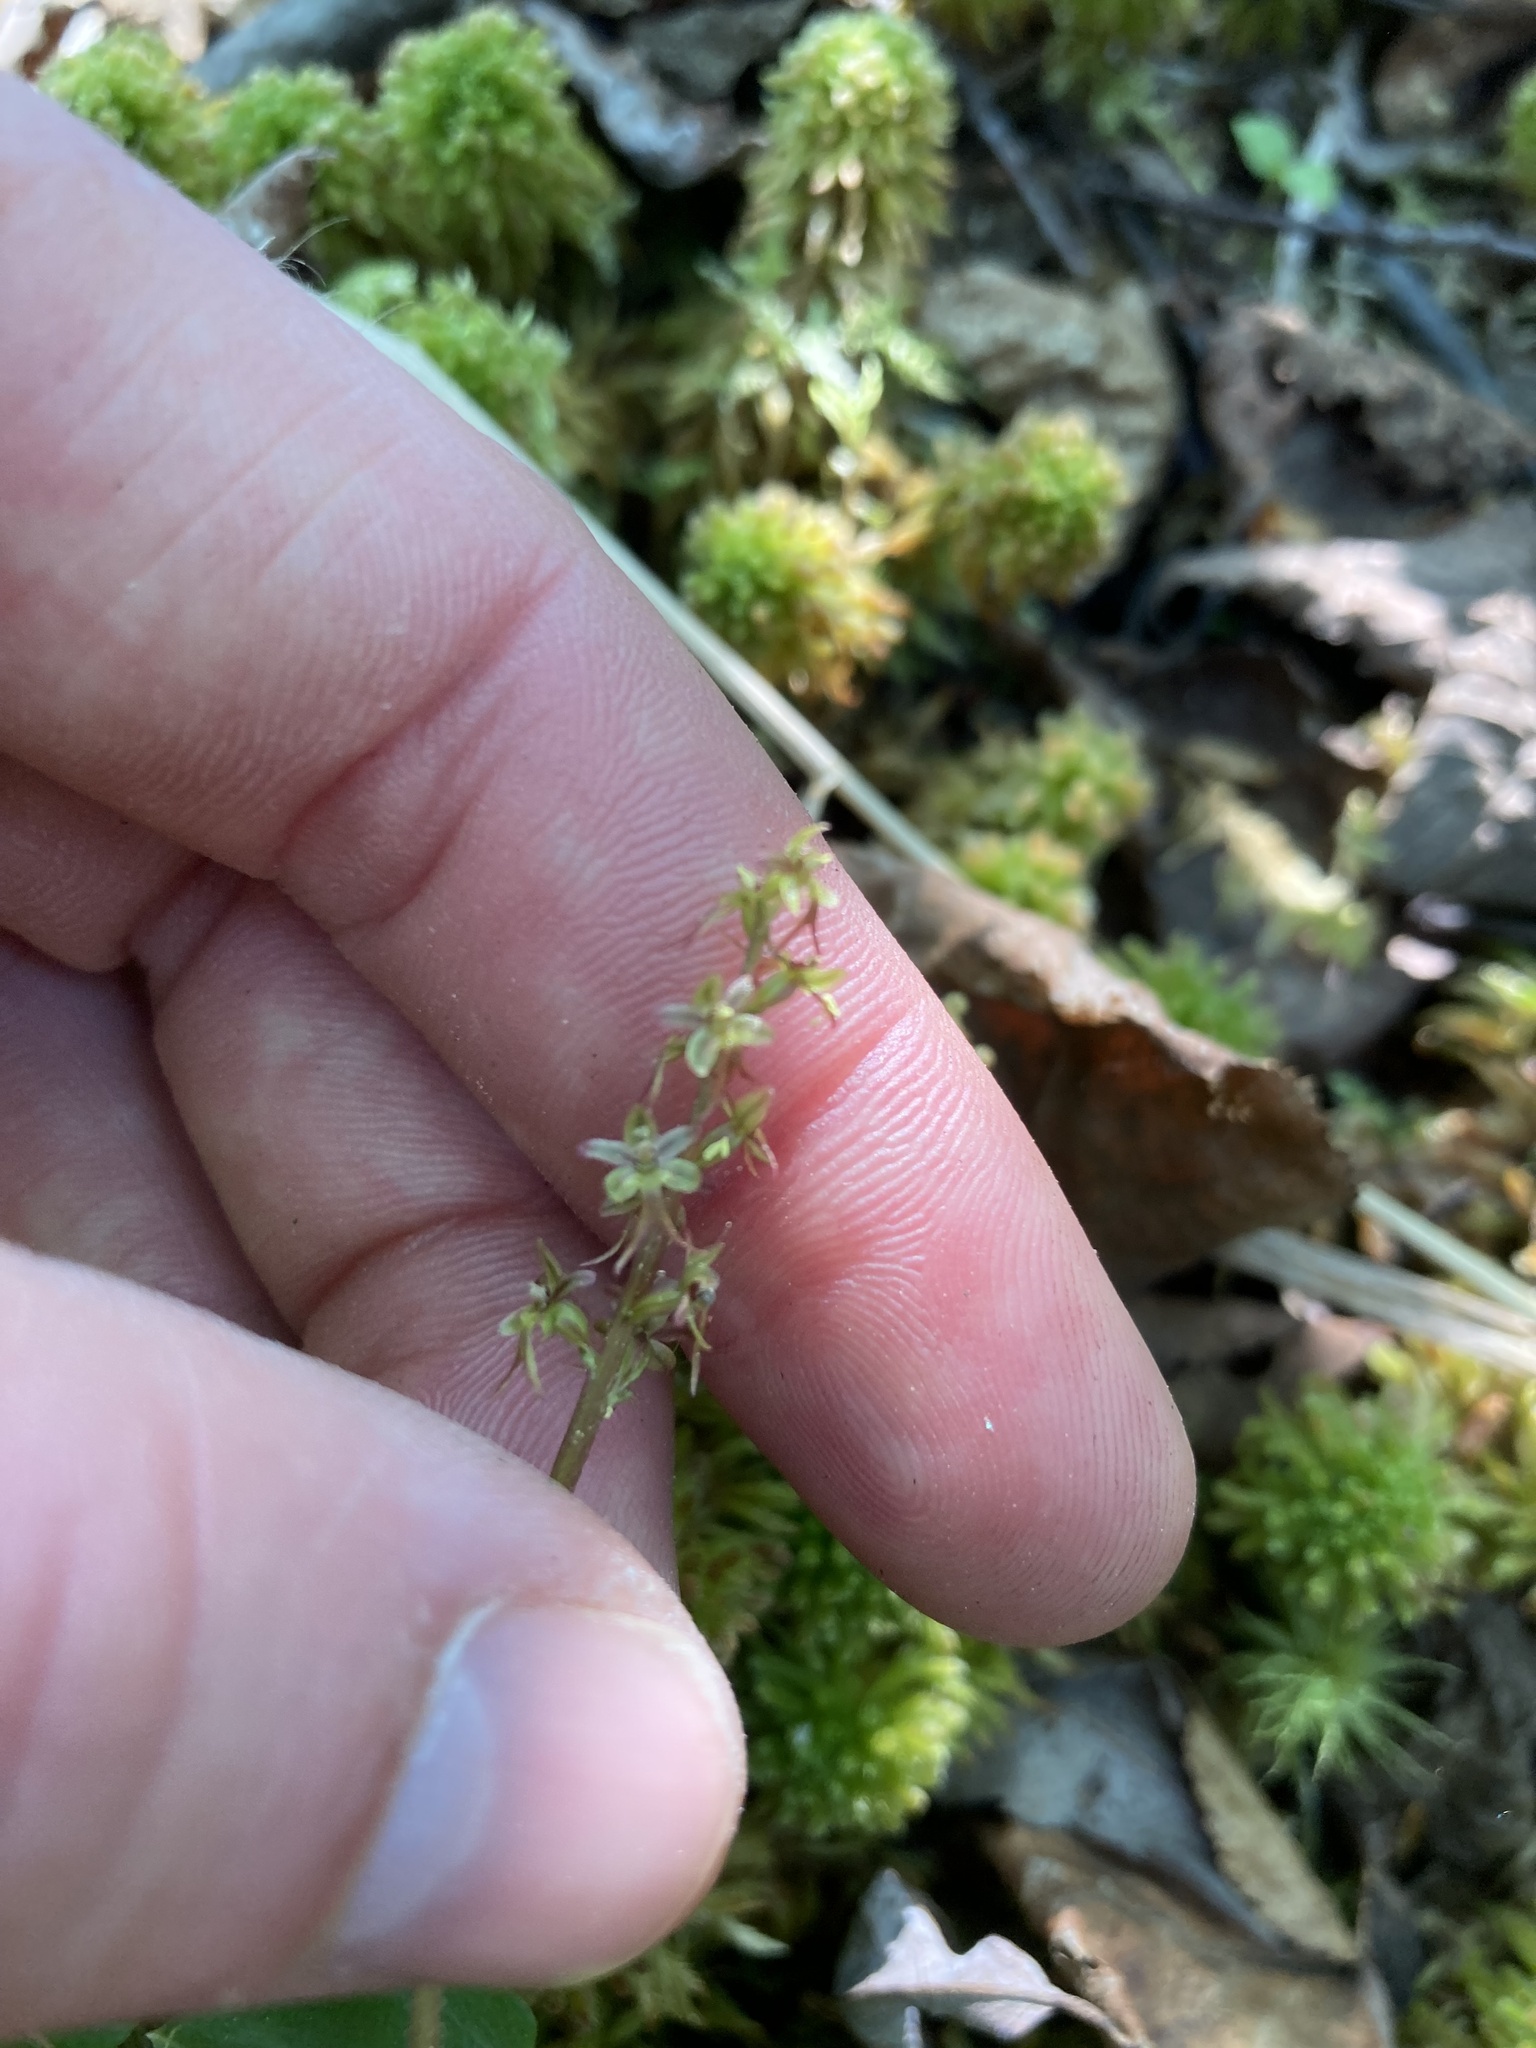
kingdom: Plantae
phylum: Tracheophyta
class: Liliopsida
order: Asparagales
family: Orchidaceae
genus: Neottia
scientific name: Neottia cordata
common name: Lesser twayblade
